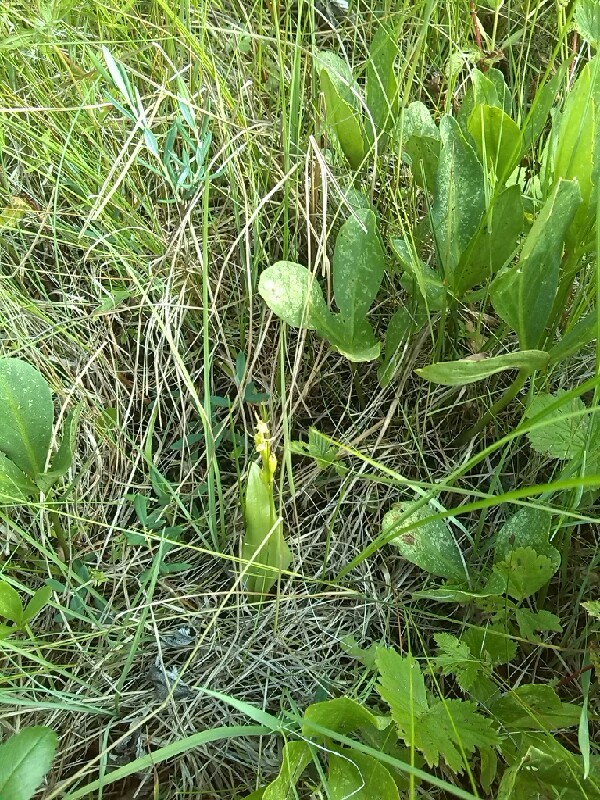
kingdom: Animalia
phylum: Arthropoda
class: Insecta
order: Coleoptera
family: Curculionidae
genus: Liparis
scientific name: Liparis loeselii
